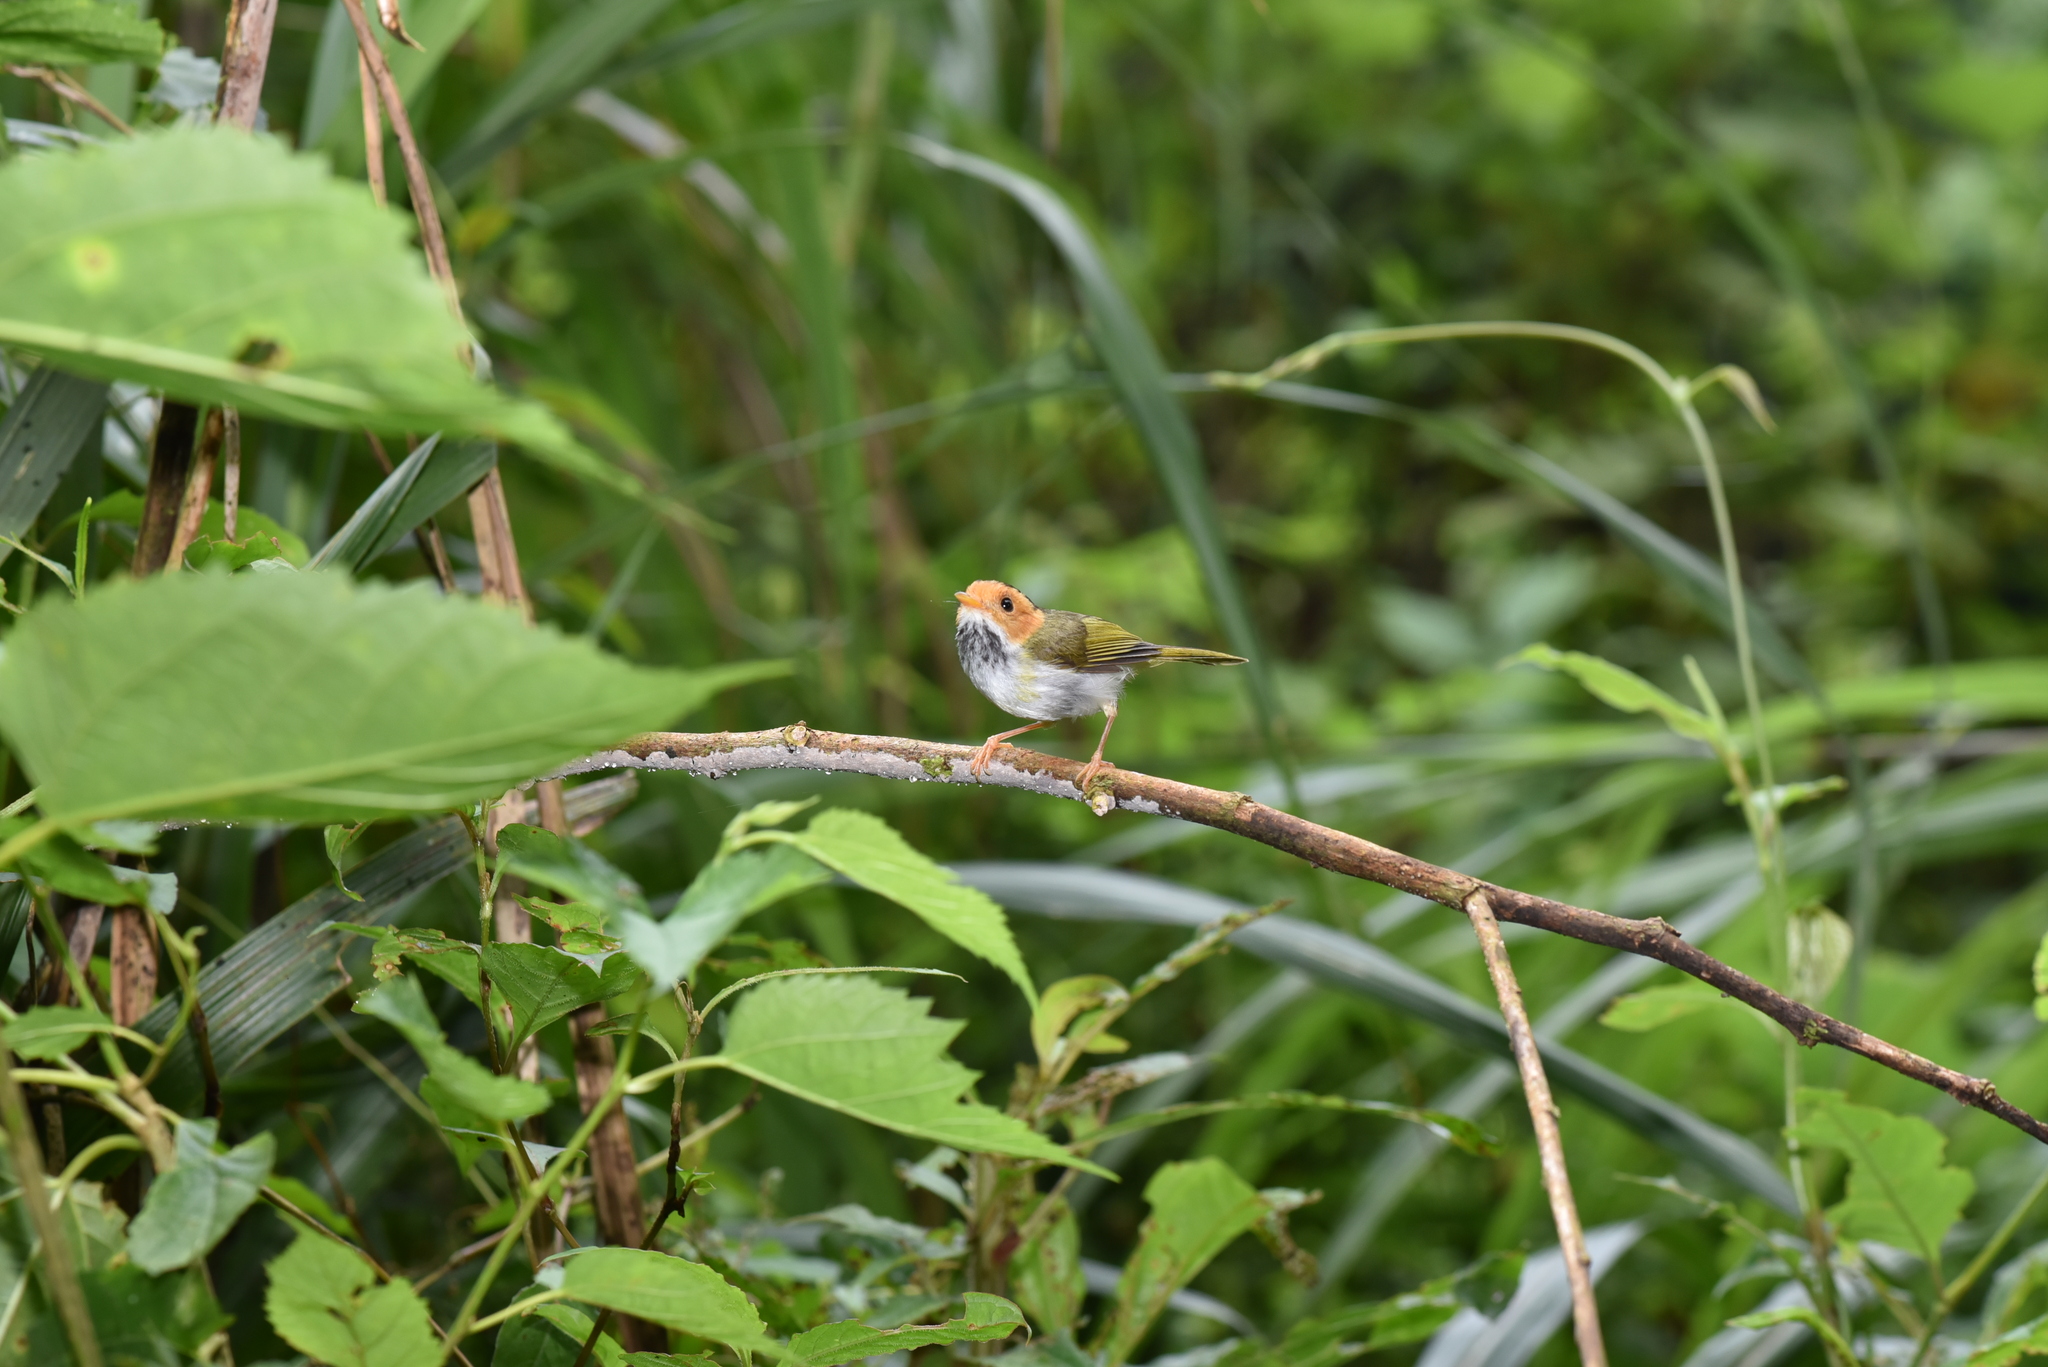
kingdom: Animalia
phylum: Chordata
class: Aves
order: Passeriformes
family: Cettiidae
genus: Abroscopus
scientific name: Abroscopus albogularis
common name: Rufous-faced warbler
